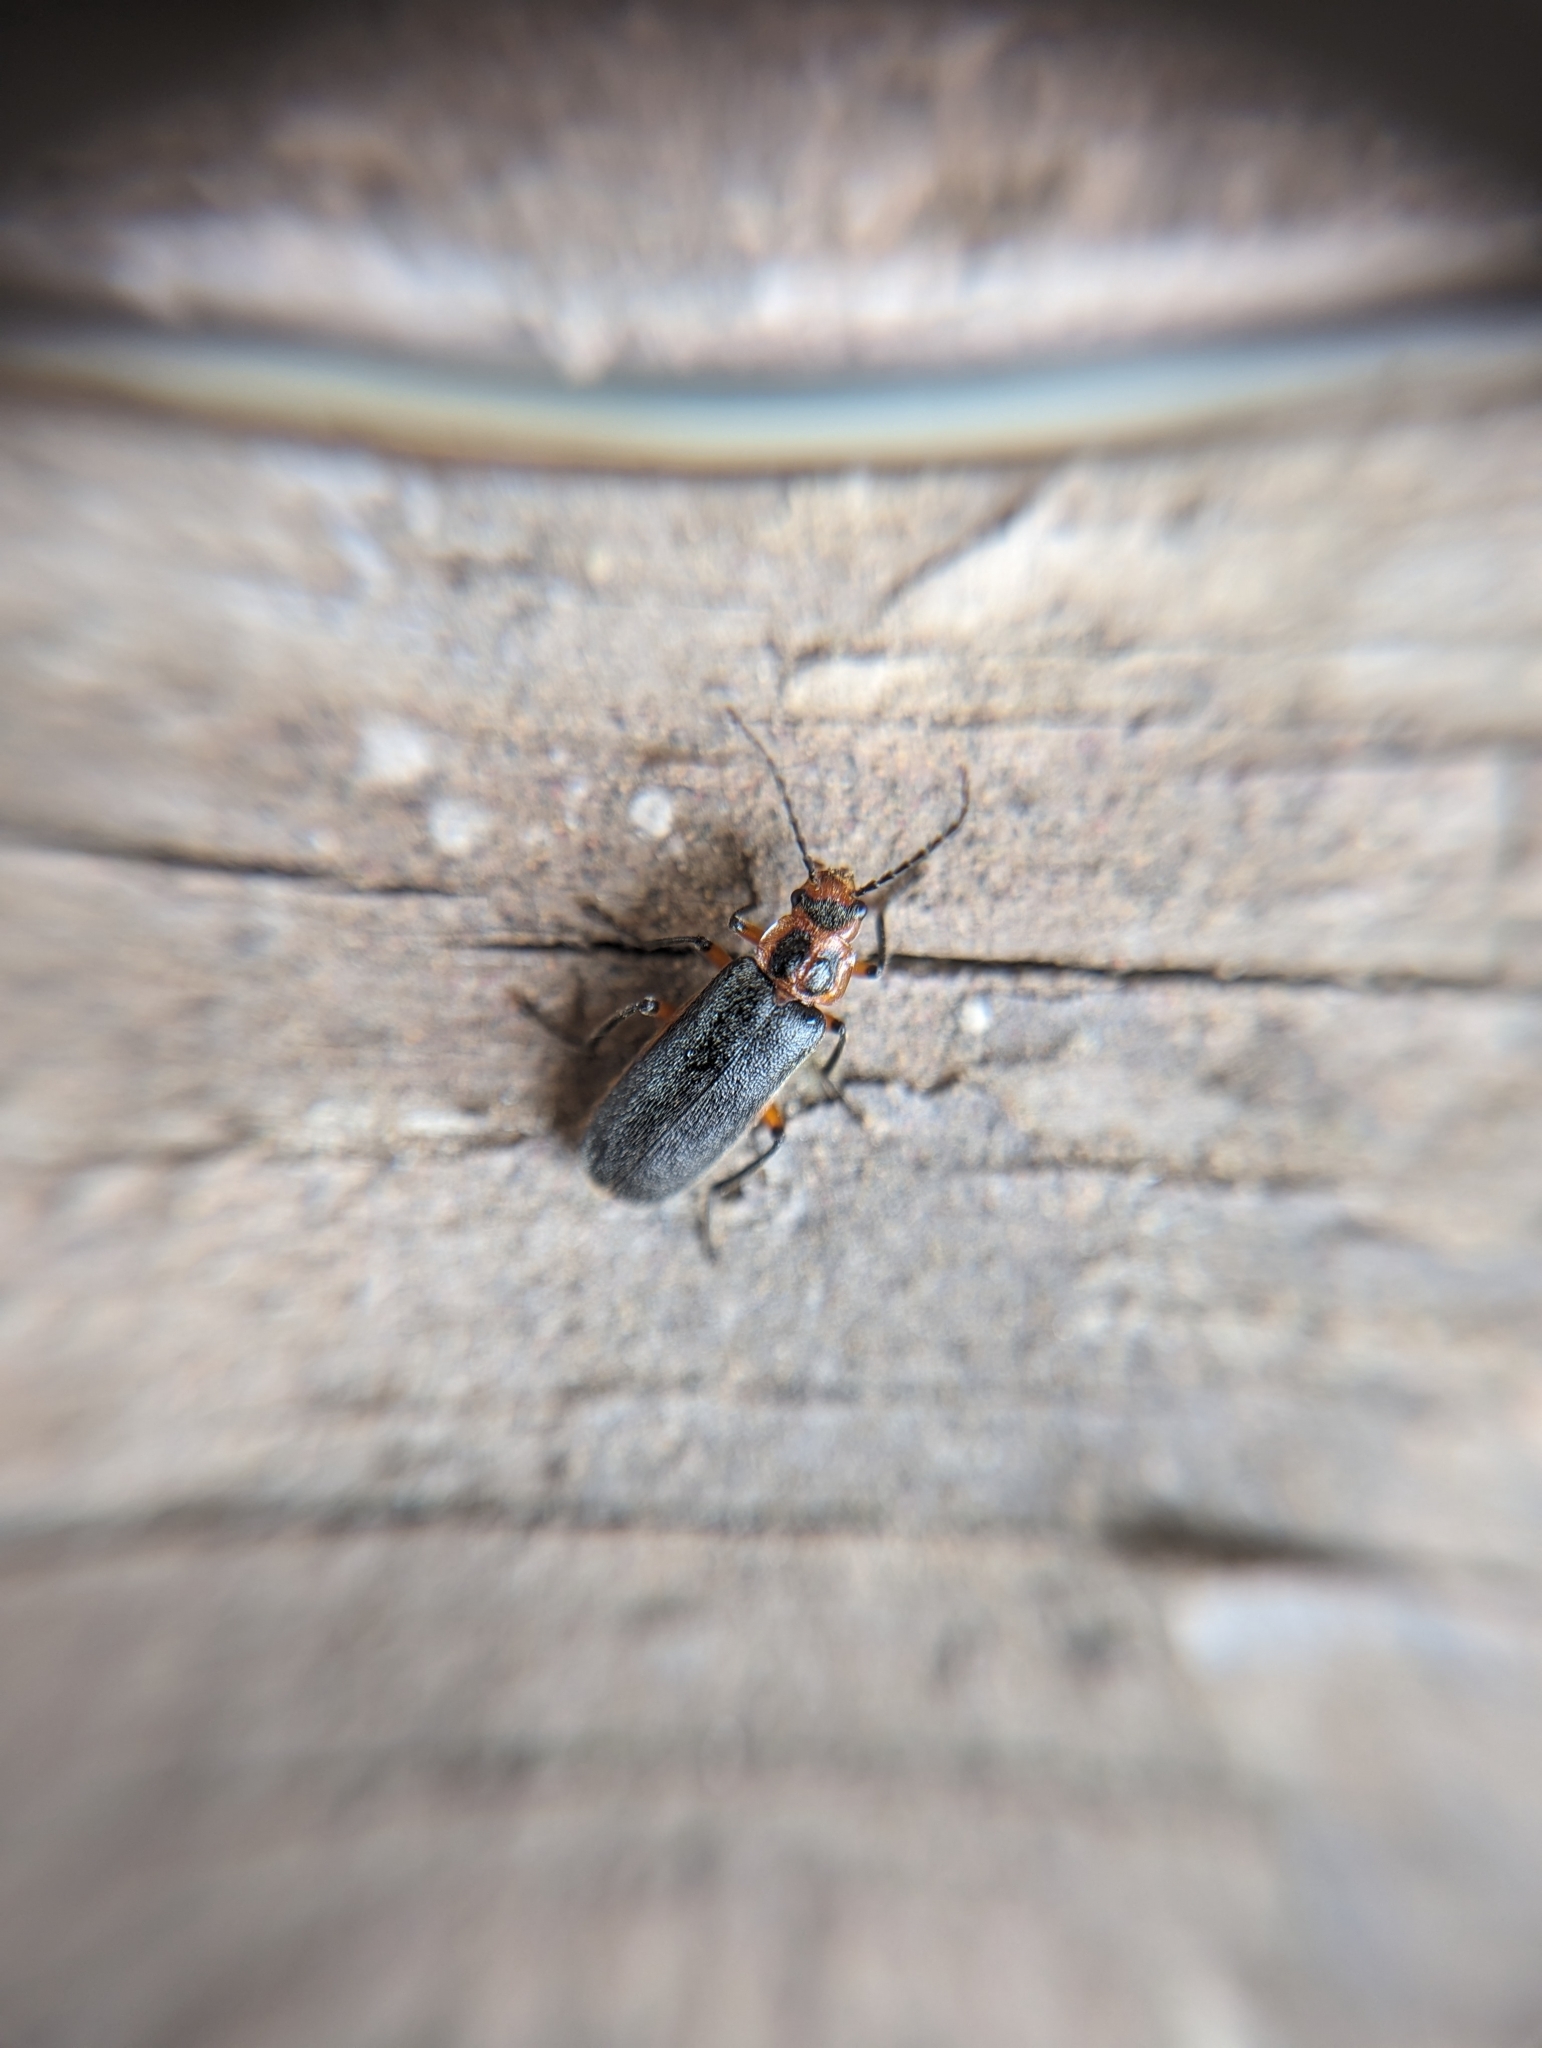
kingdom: Animalia
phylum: Arthropoda
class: Insecta
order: Coleoptera
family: Cantharidae
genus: Atalantycha
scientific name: Atalantycha bilineata
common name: Two-lined leatherwing
